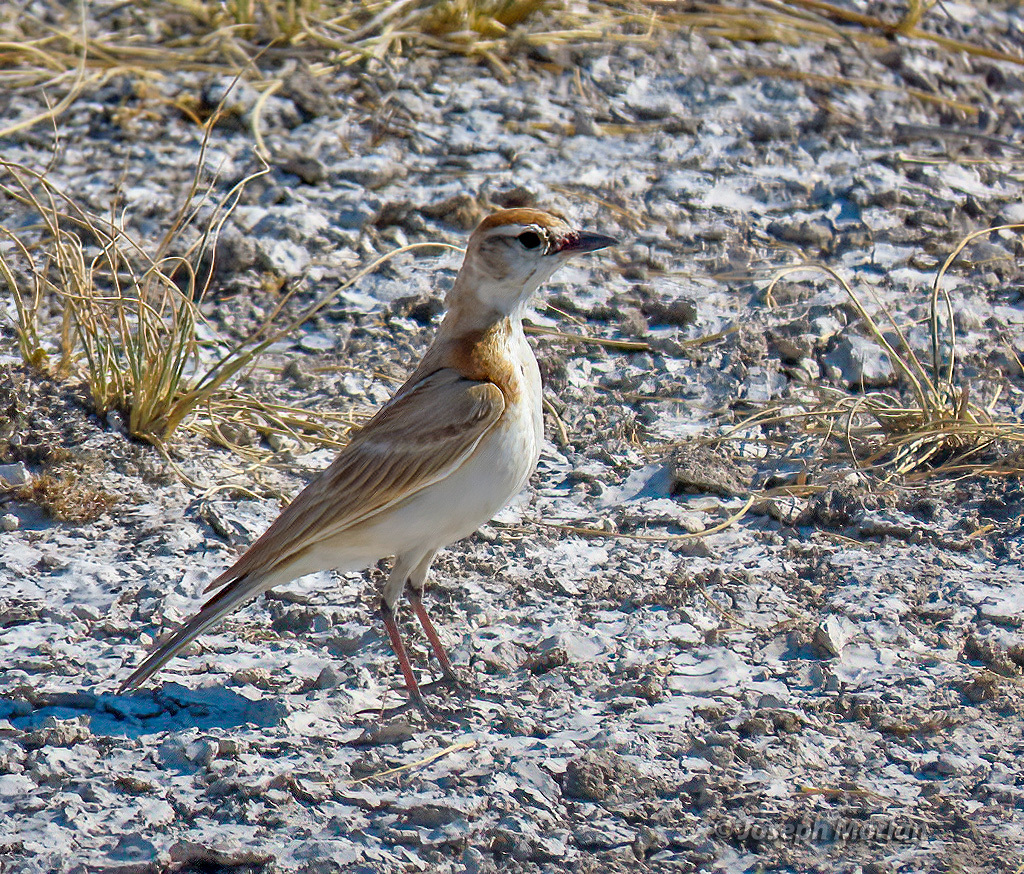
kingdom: Animalia
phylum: Chordata
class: Aves
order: Passeriformes
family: Alaudidae
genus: Calandrella
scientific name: Calandrella cinerea
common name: Red-capped lark
